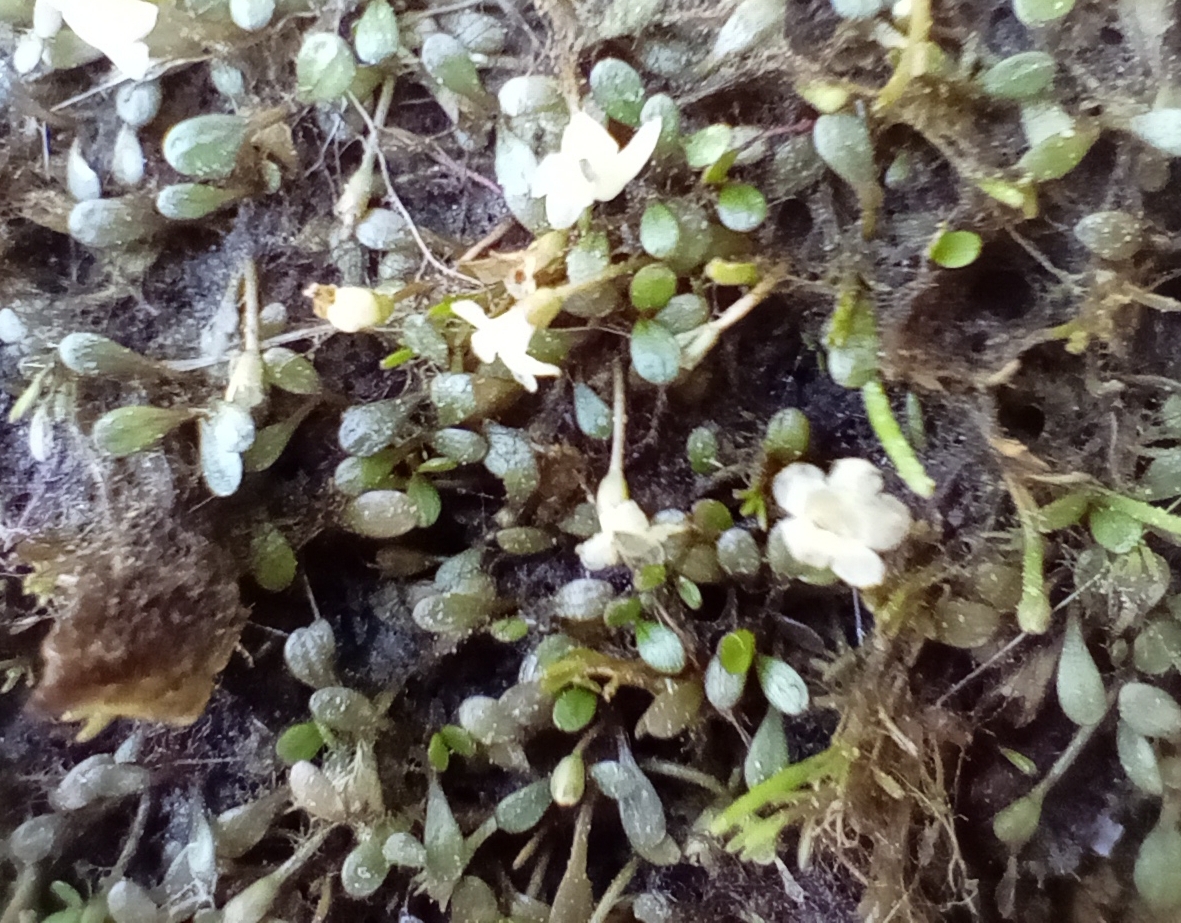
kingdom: Plantae
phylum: Tracheophyta
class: Magnoliopsida
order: Lamiales
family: Phrymaceae
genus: Glossostigma
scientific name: Glossostigma elatinoides
